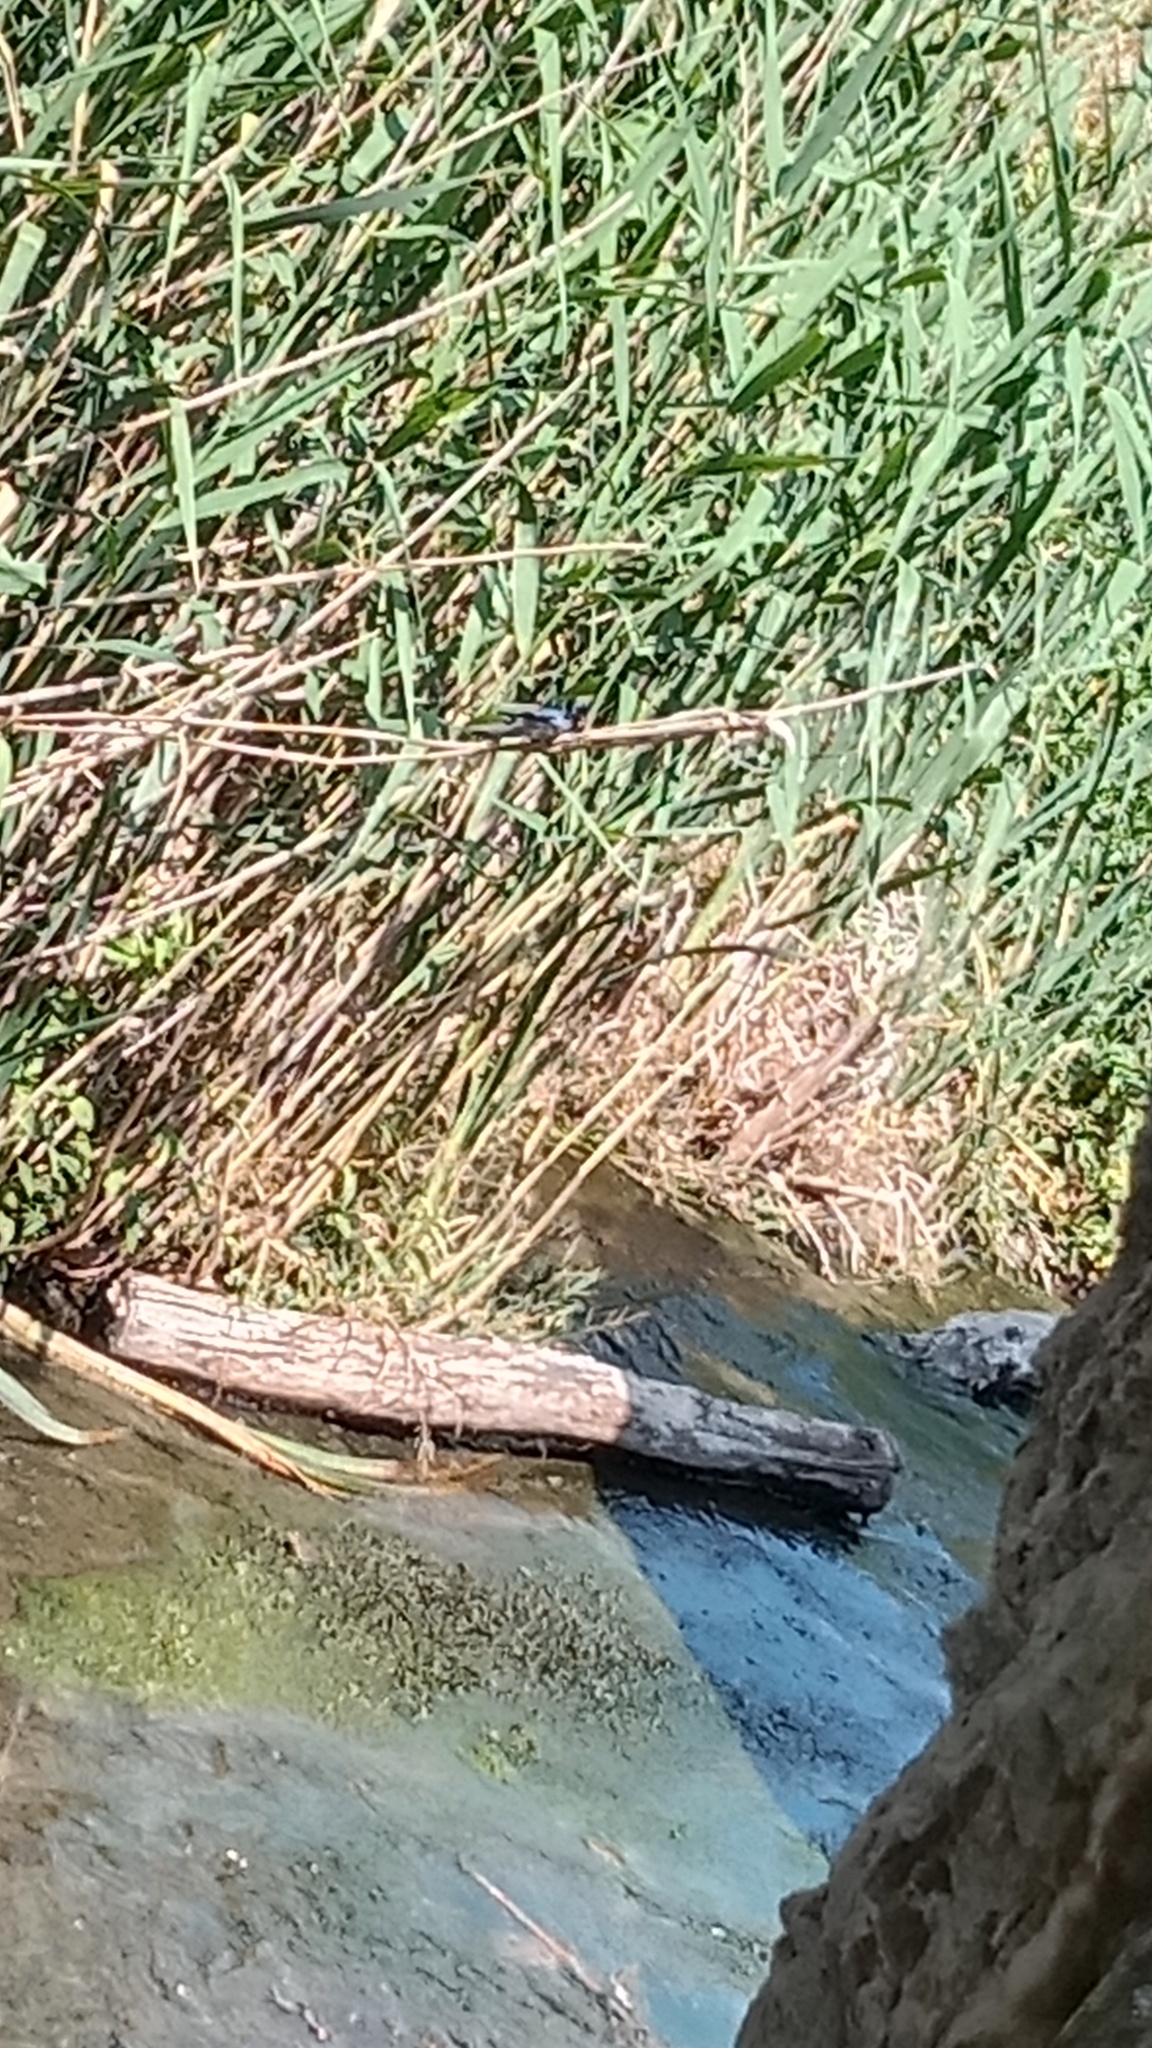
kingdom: Animalia
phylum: Chordata
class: Aves
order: Passeriformes
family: Hirundinidae
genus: Hirundo
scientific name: Hirundo rustica
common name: Barn swallow
